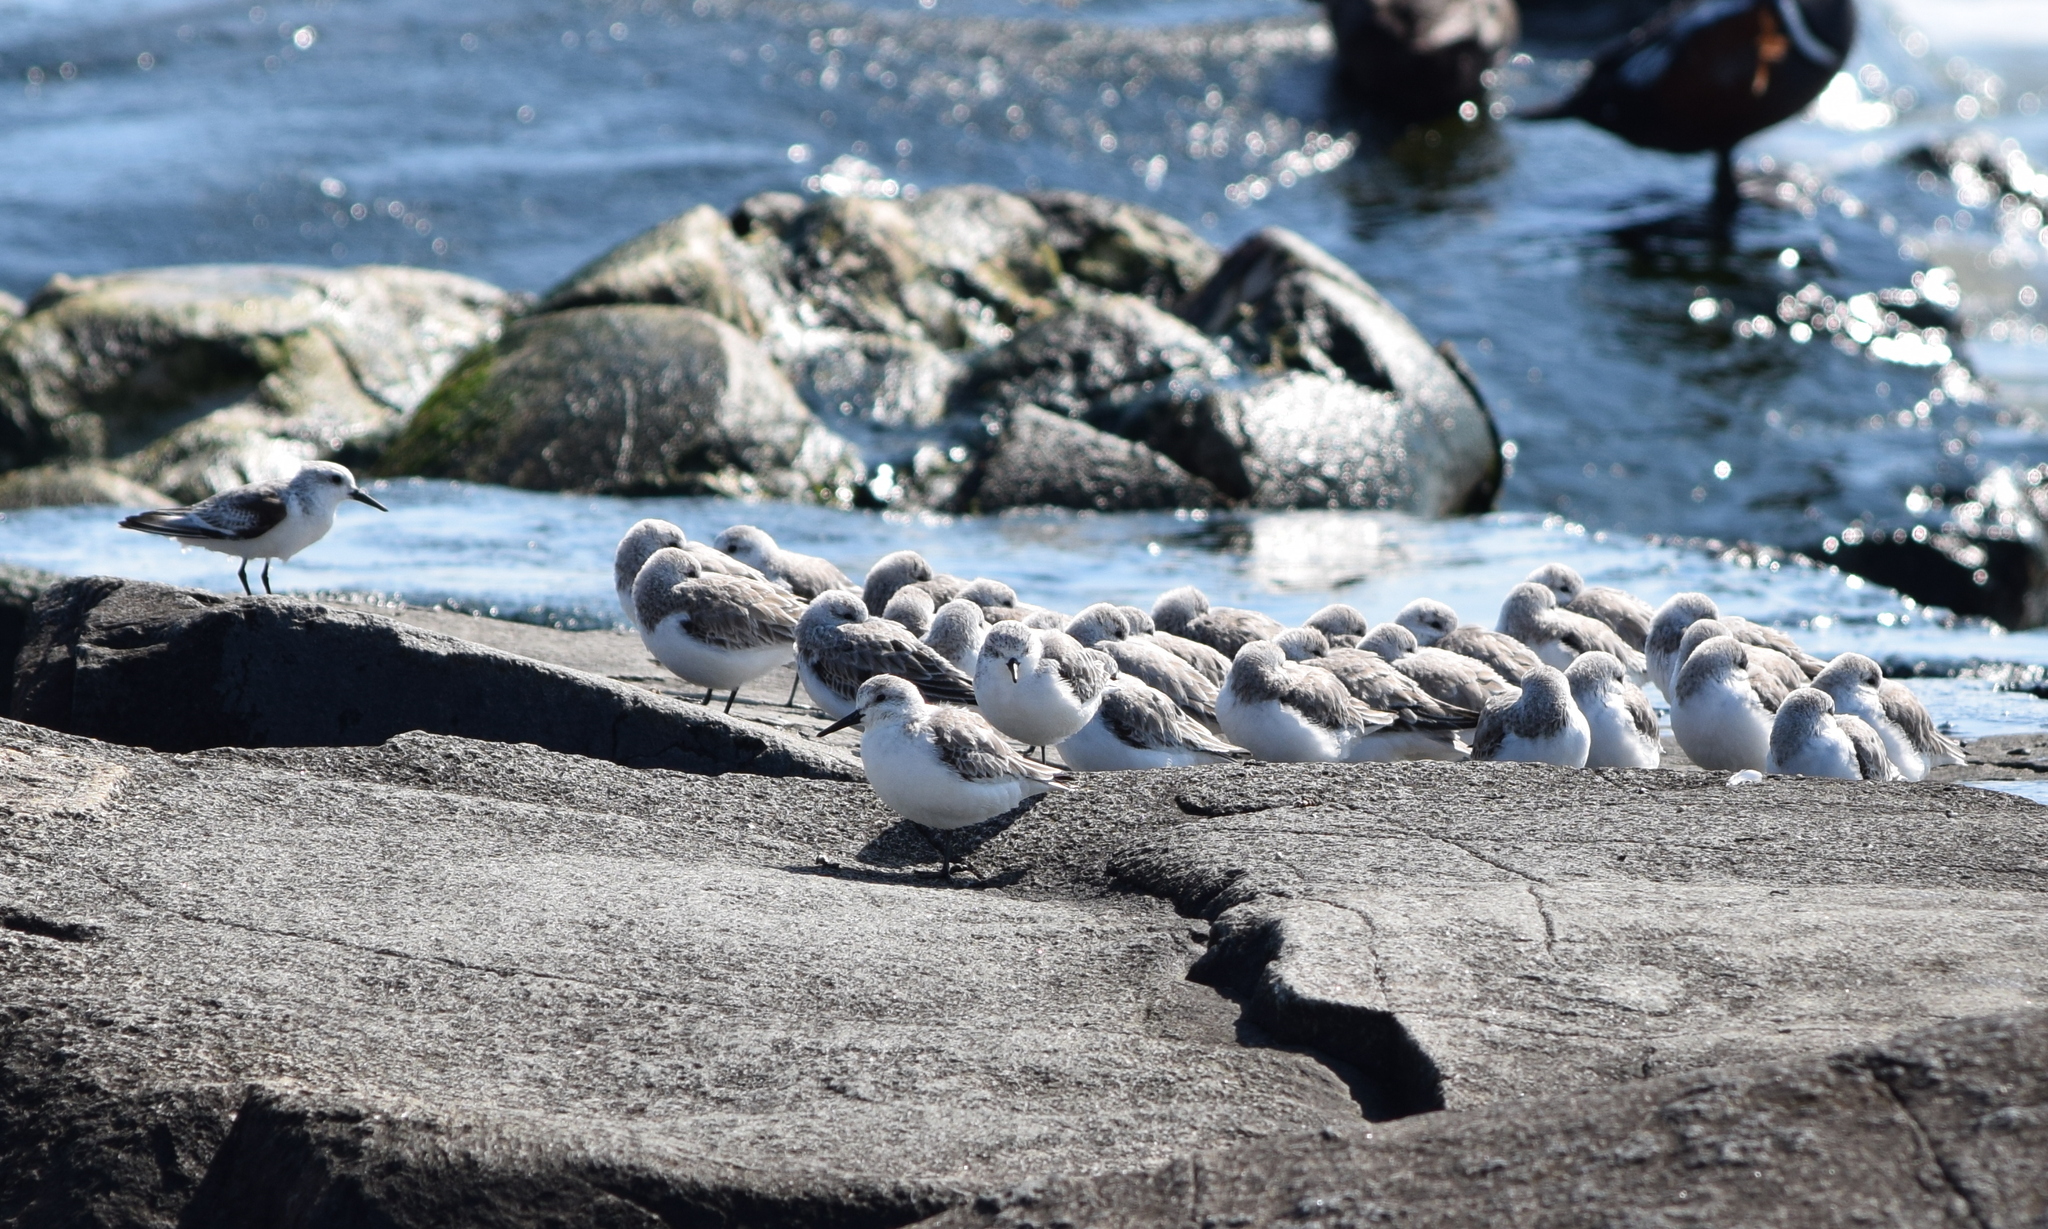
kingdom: Animalia
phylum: Chordata
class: Aves
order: Charadriiformes
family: Scolopacidae
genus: Calidris
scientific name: Calidris alba
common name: Sanderling
